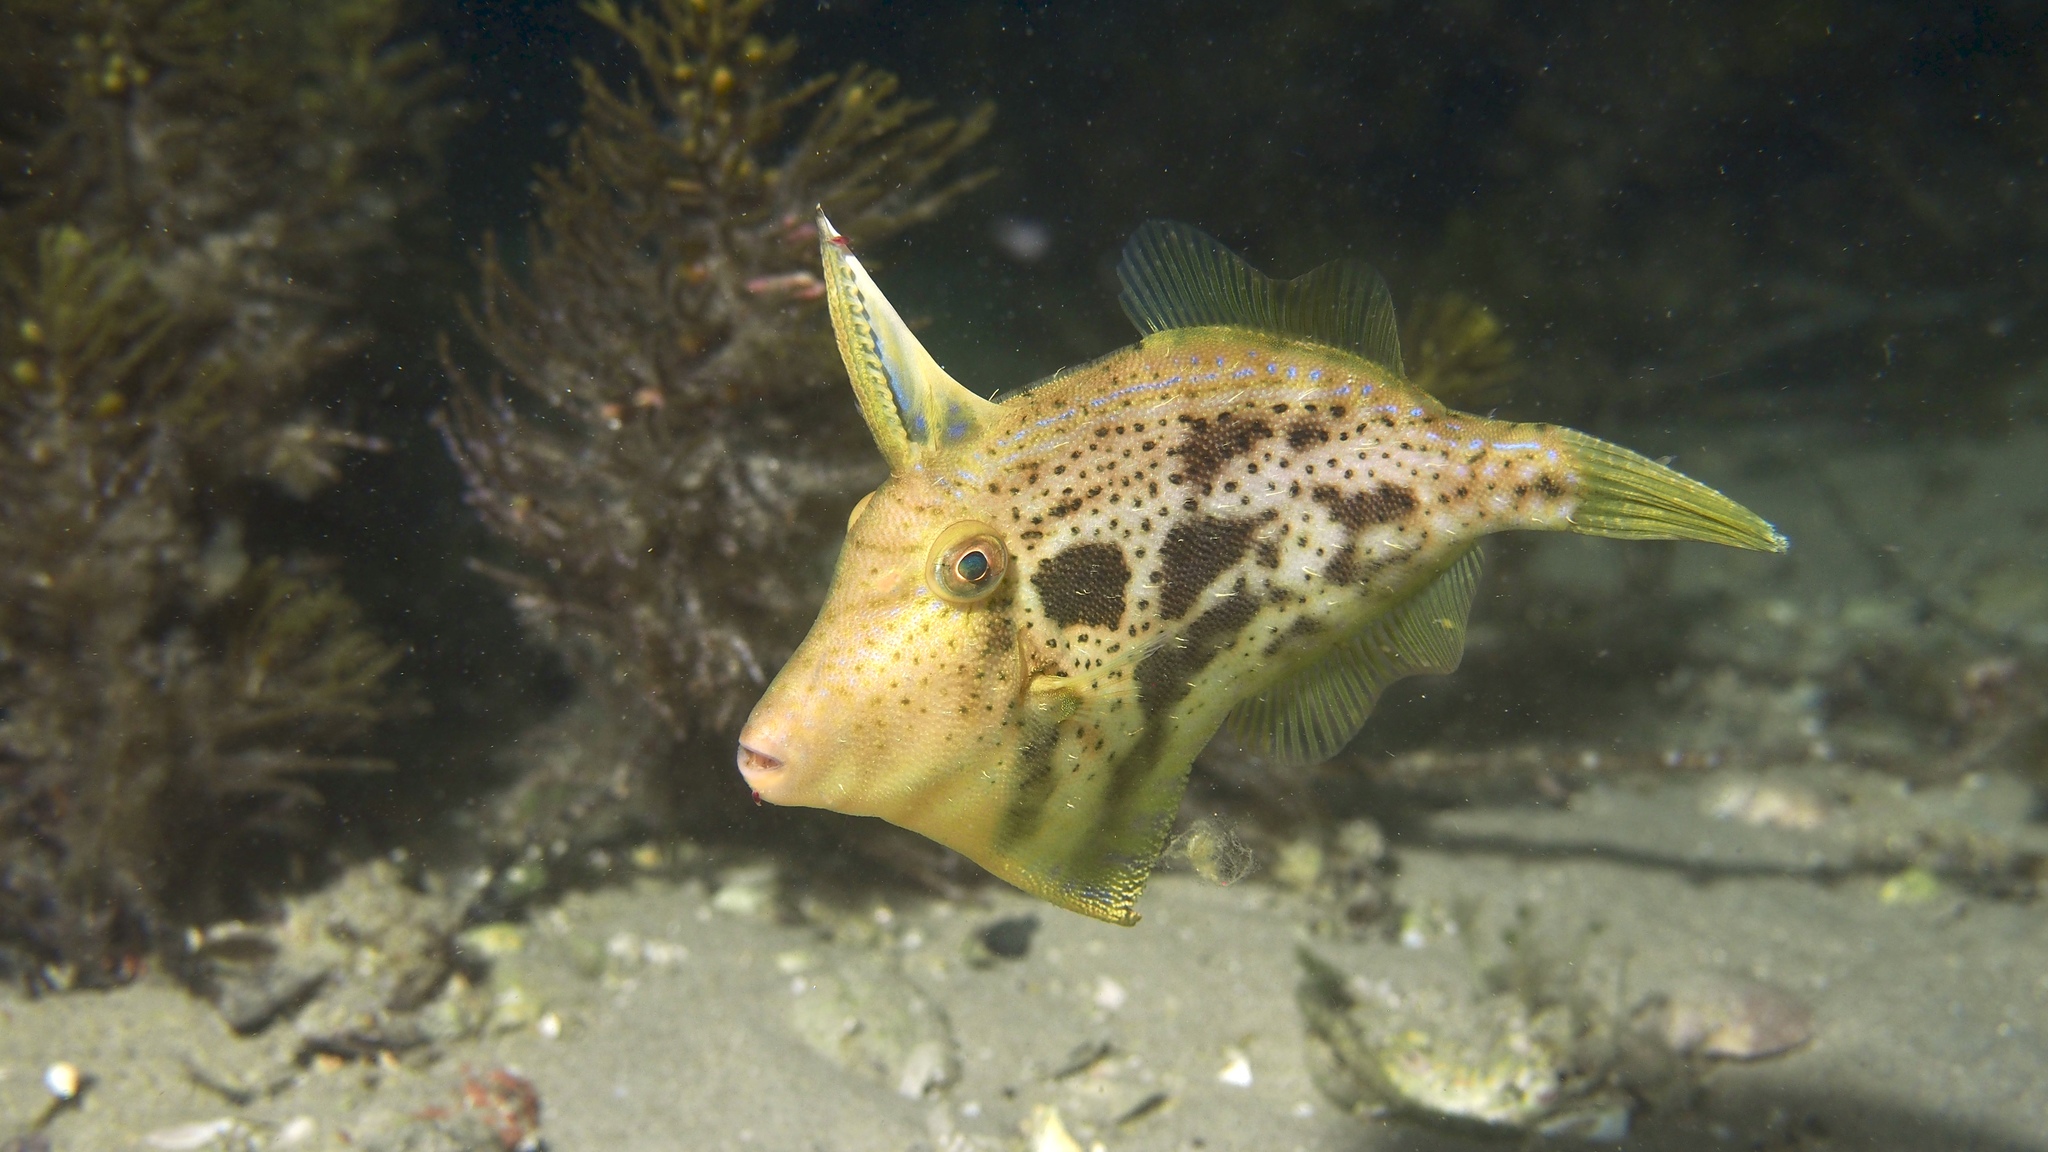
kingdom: Animalia
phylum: Chordata
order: Tetraodontiformes
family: Monacanthidae
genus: Scobinichthys
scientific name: Scobinichthys granulatus
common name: Rough leatherjacket
